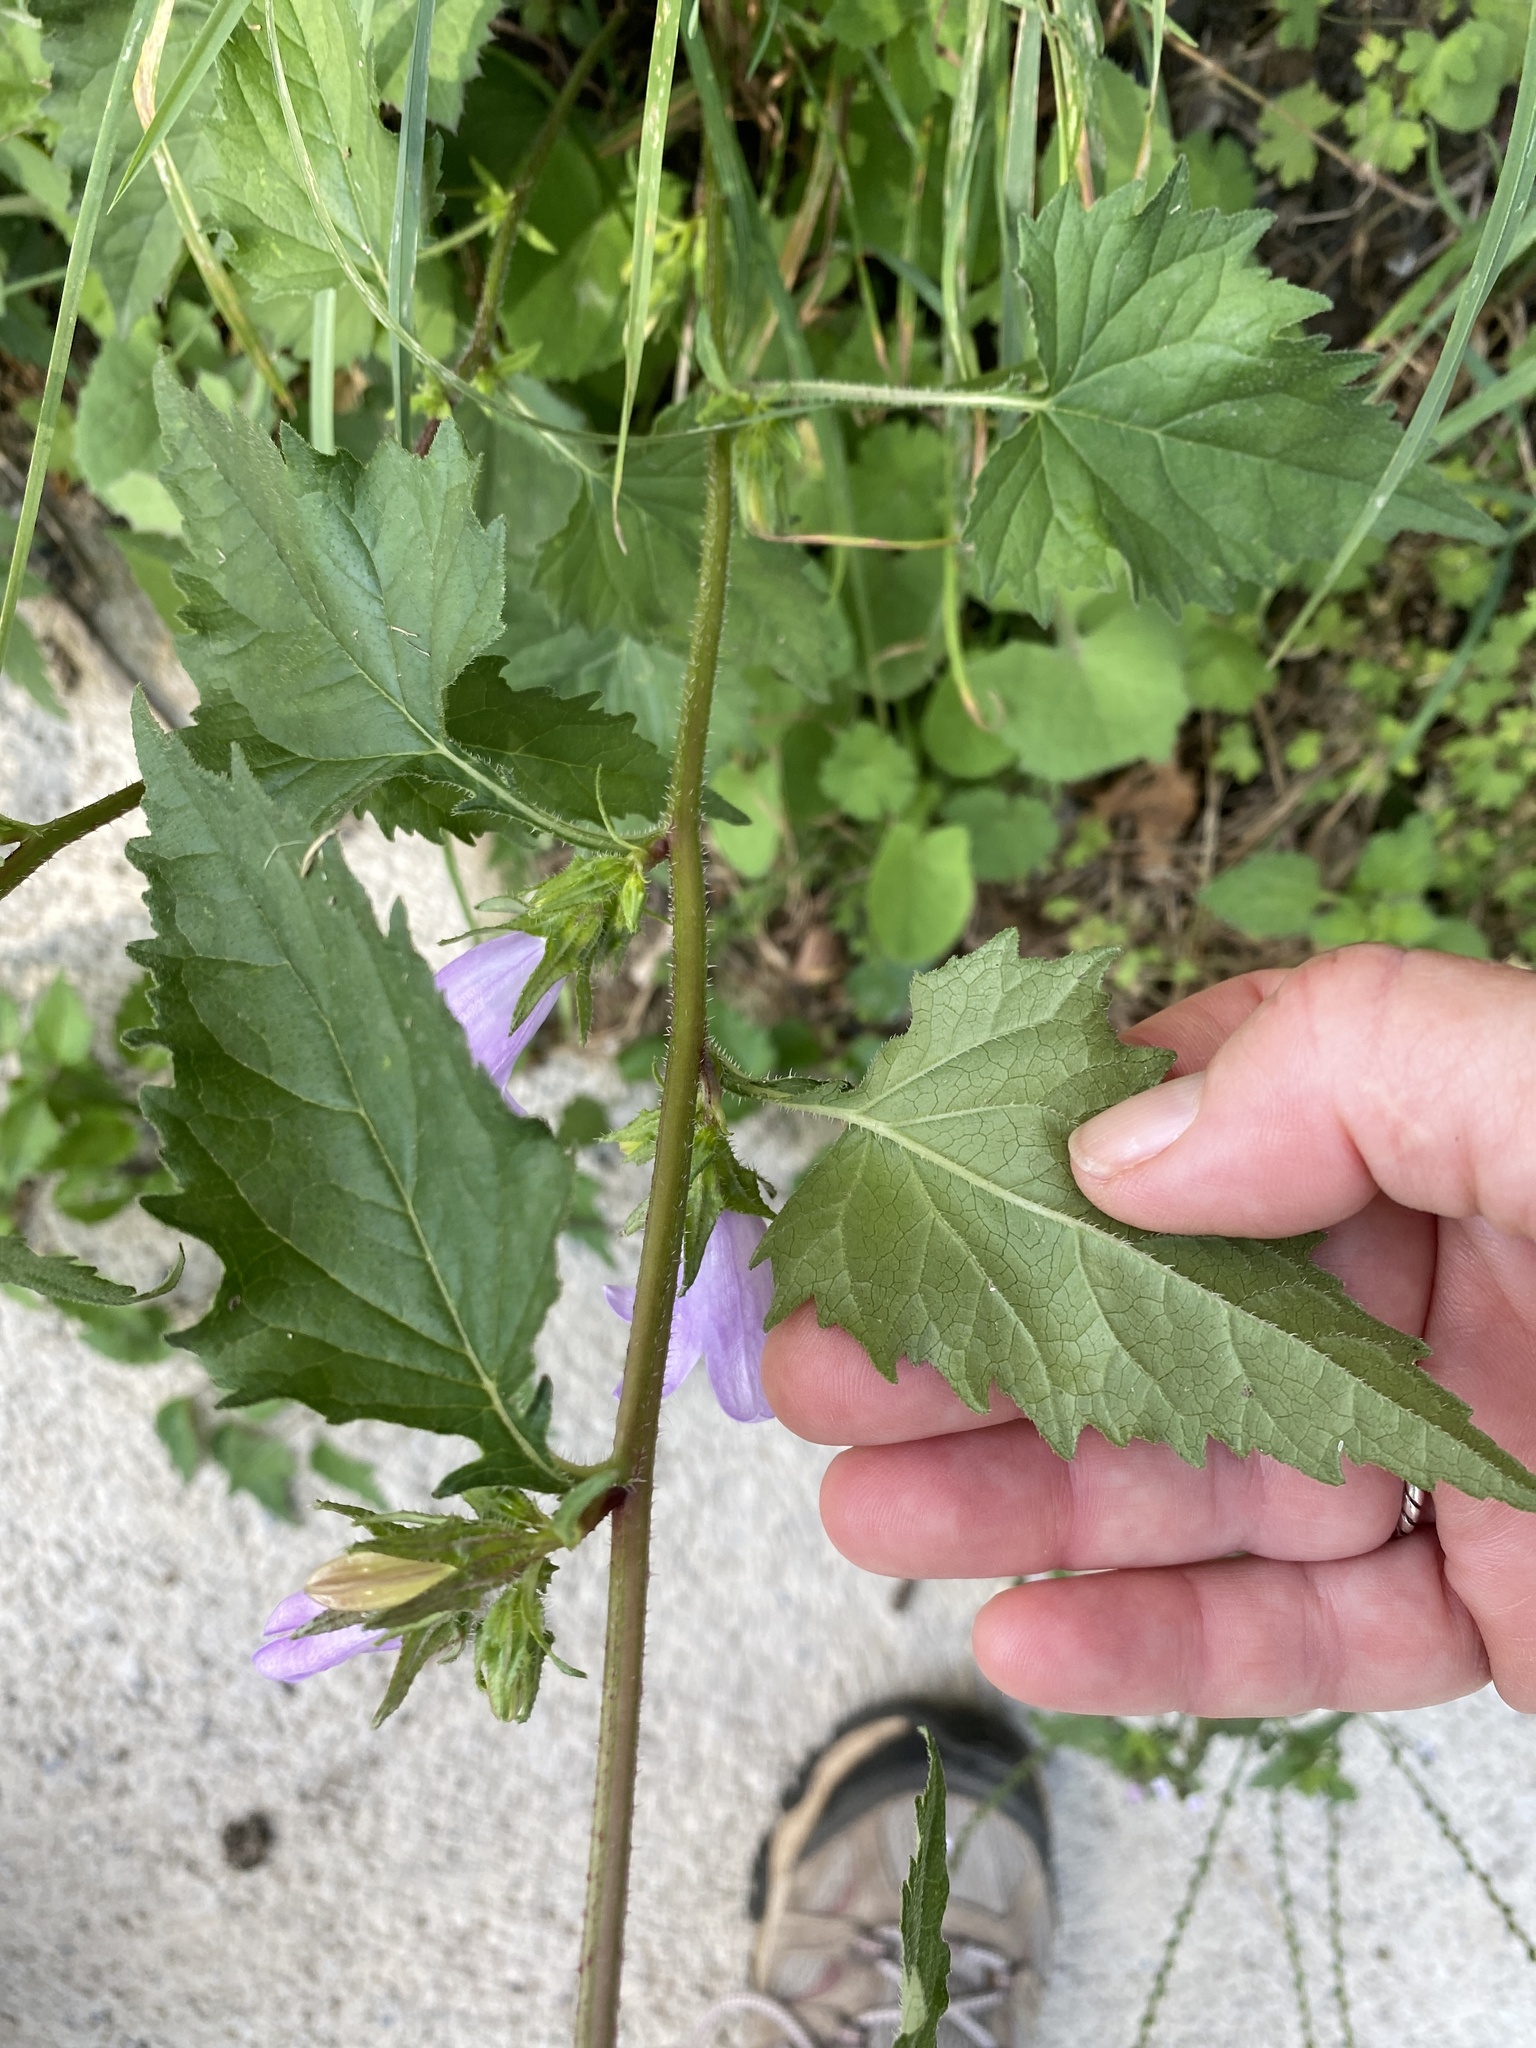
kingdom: Plantae
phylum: Tracheophyta
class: Magnoliopsida
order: Asterales
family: Campanulaceae
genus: Campanula
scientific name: Campanula trachelium
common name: Nettle-leaved bellflower
